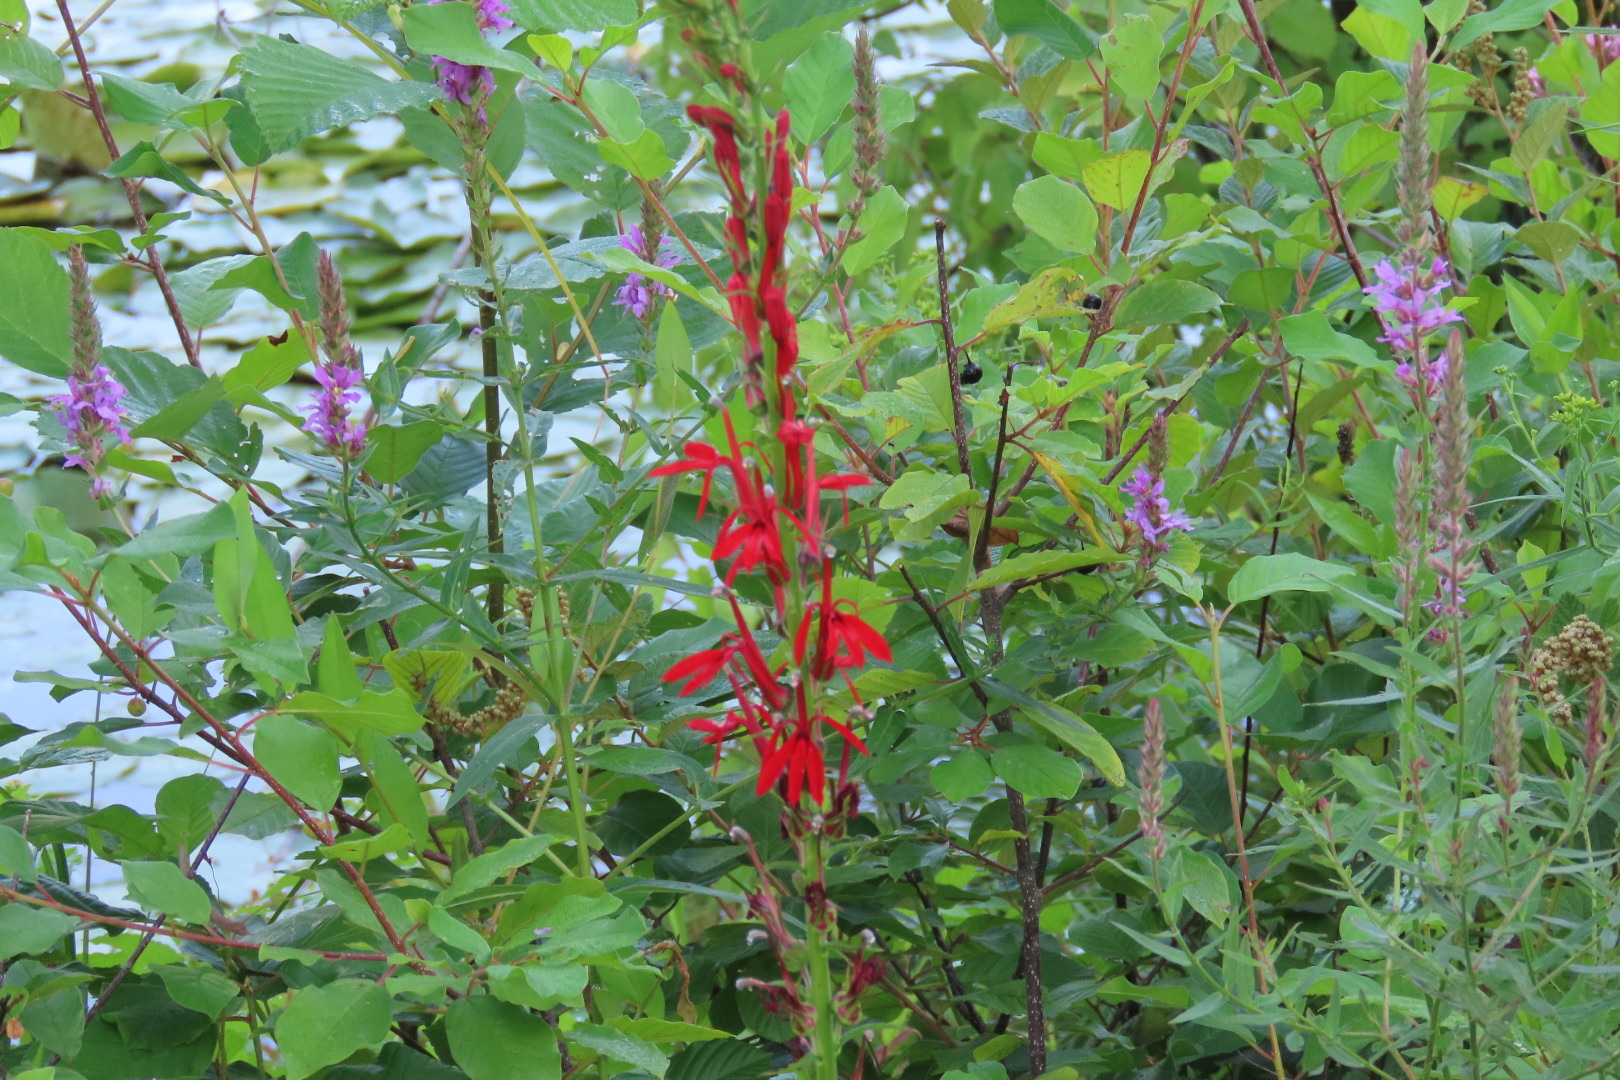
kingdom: Plantae
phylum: Tracheophyta
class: Magnoliopsida
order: Asterales
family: Campanulaceae
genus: Lobelia
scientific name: Lobelia cardinalis
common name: Cardinal flower
